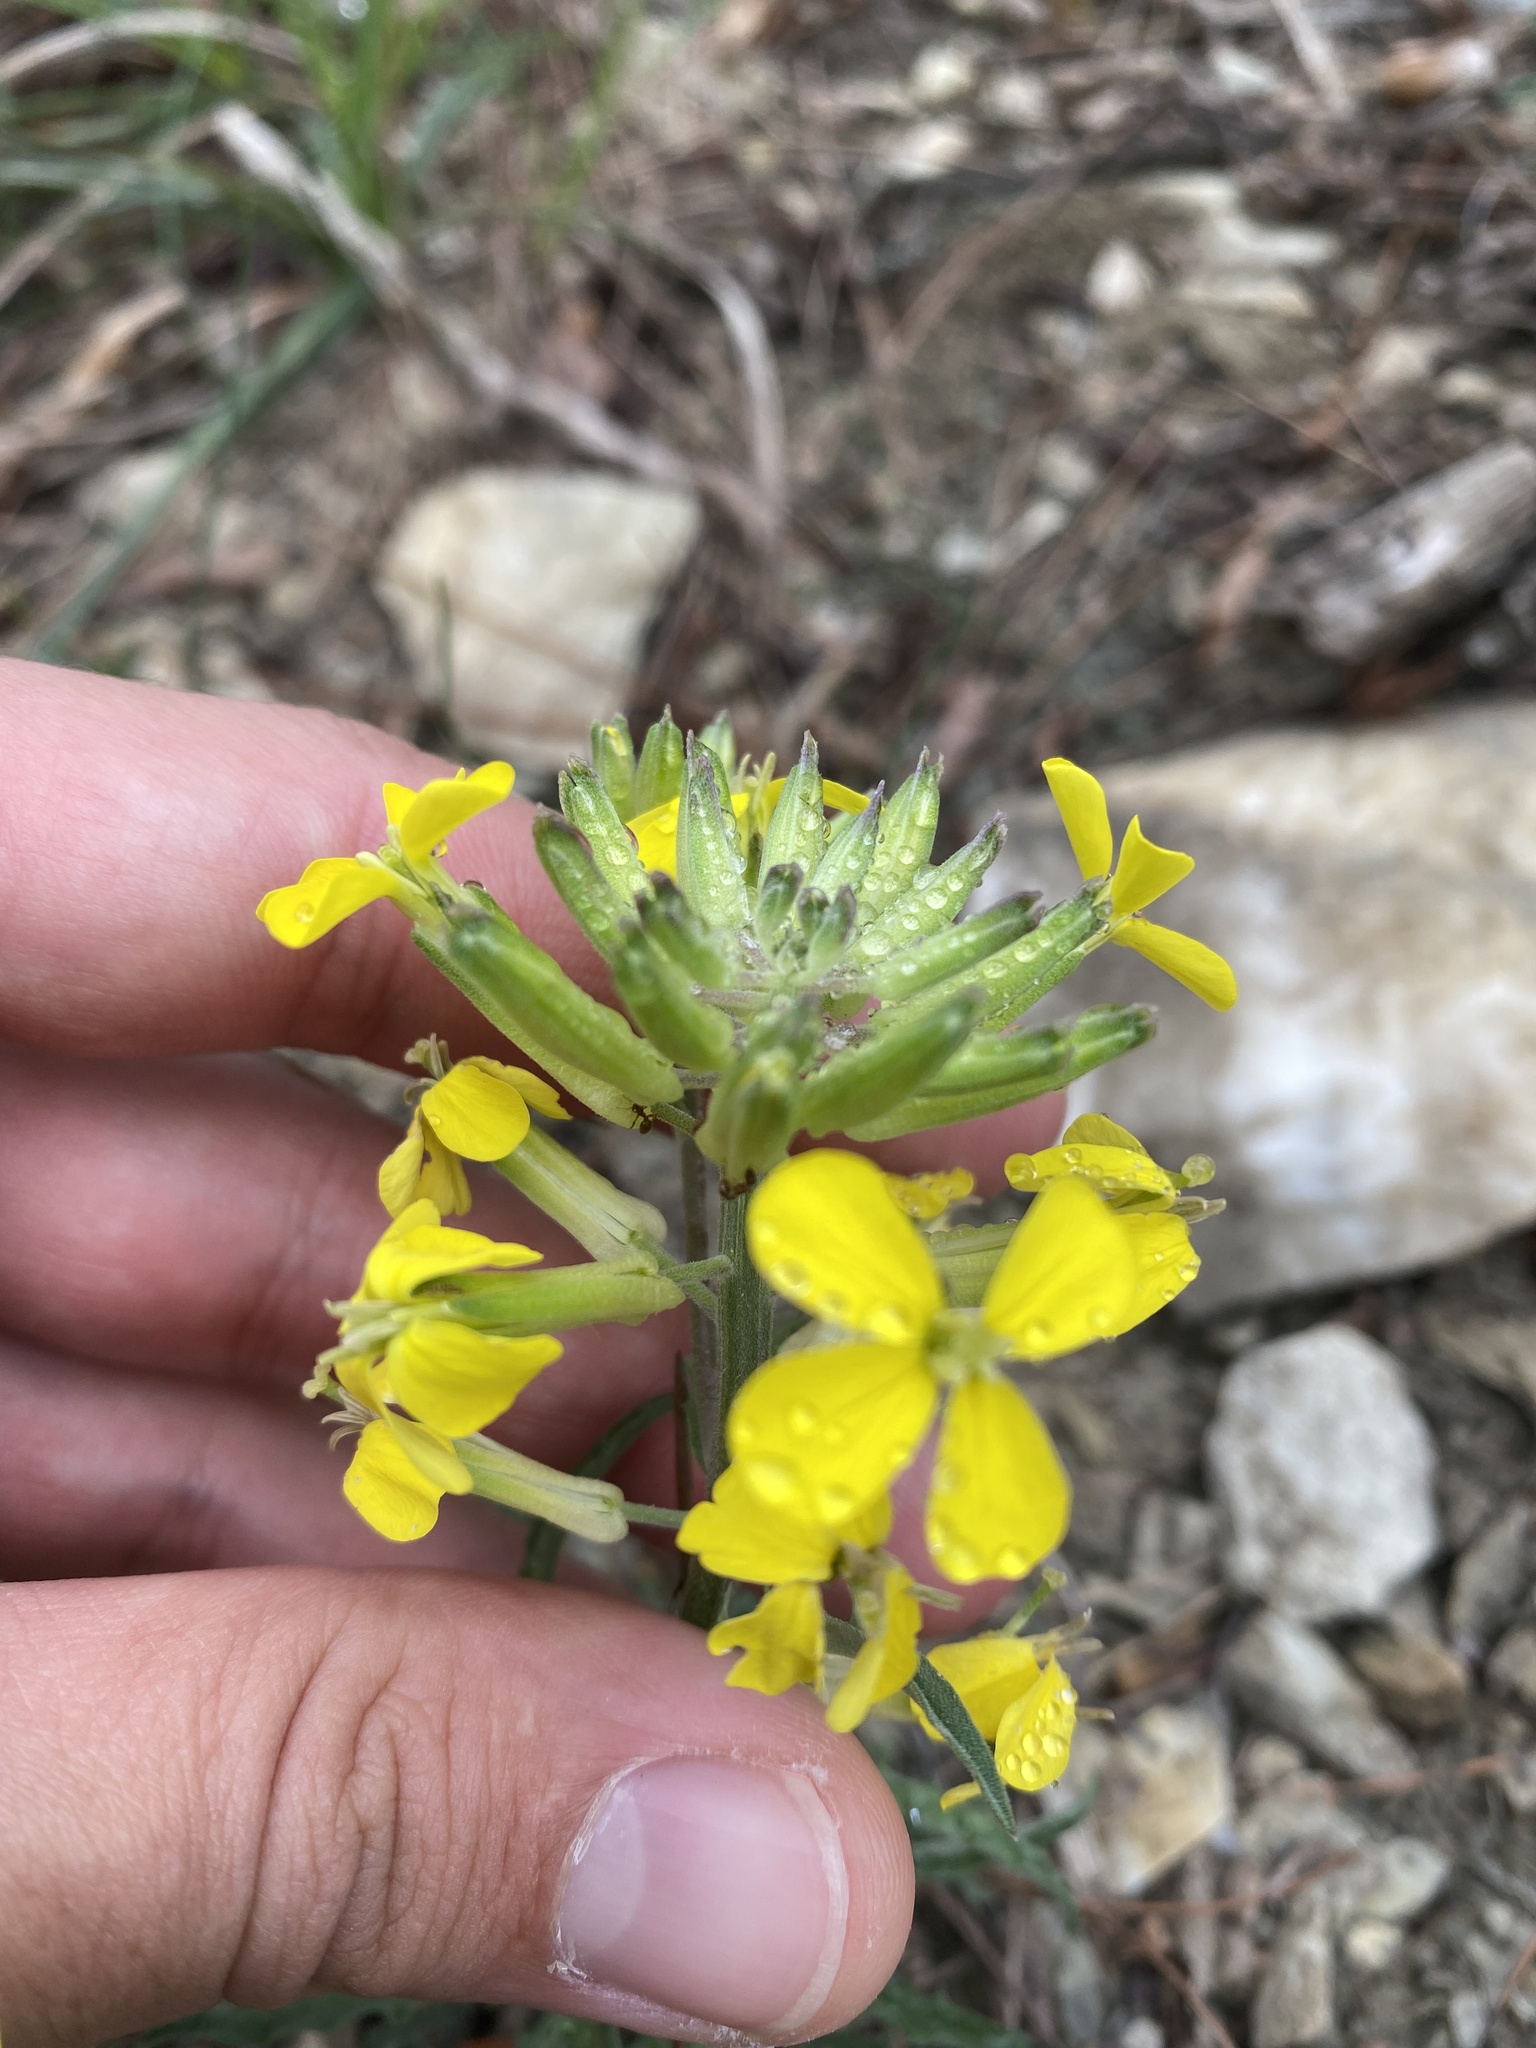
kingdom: Plantae
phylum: Tracheophyta
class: Magnoliopsida
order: Brassicales
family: Brassicaceae
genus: Erysimum
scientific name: Erysimum callicarpum
